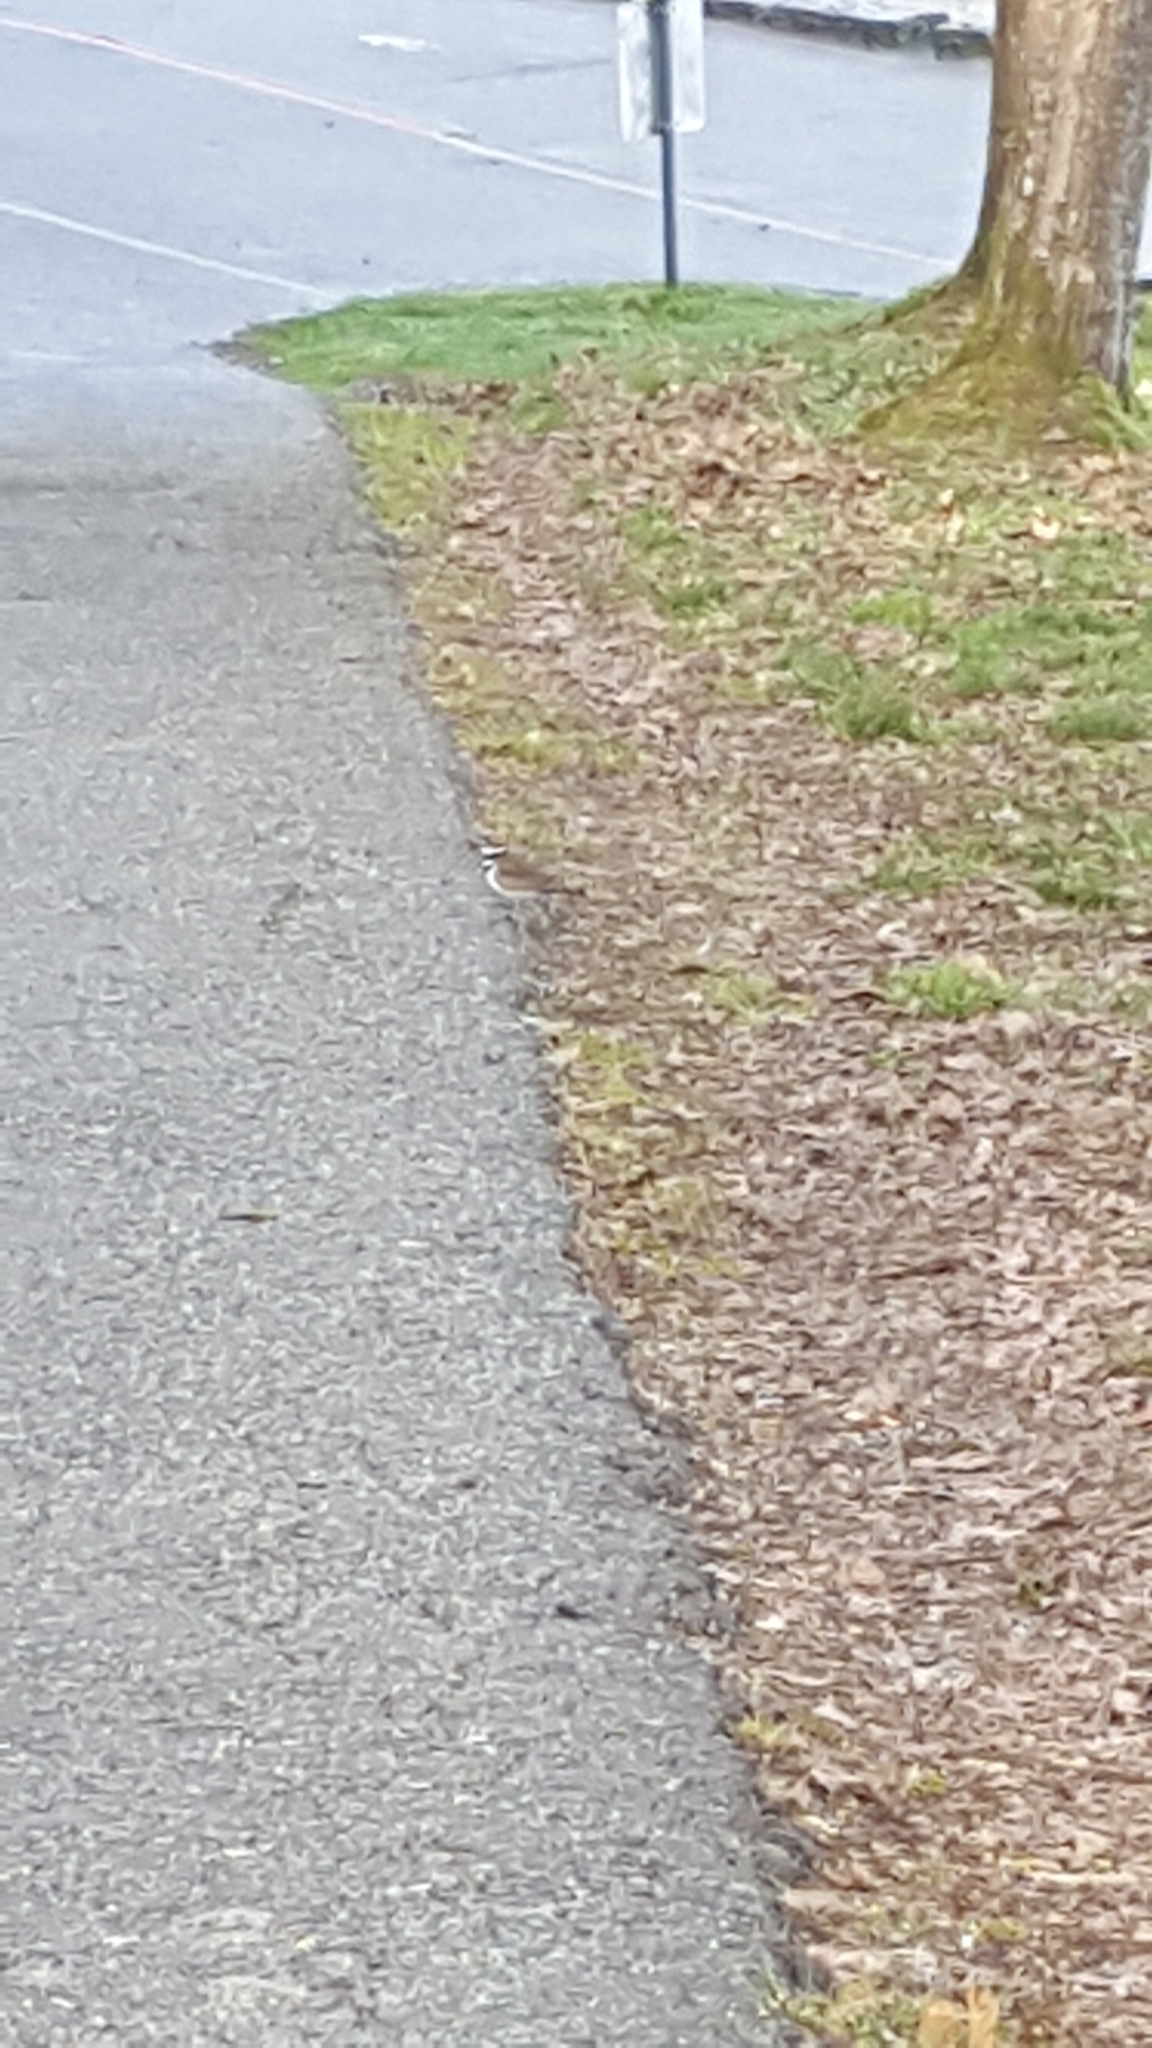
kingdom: Animalia
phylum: Chordata
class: Aves
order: Charadriiformes
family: Charadriidae
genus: Charadrius
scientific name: Charadrius vociferus
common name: Killdeer
